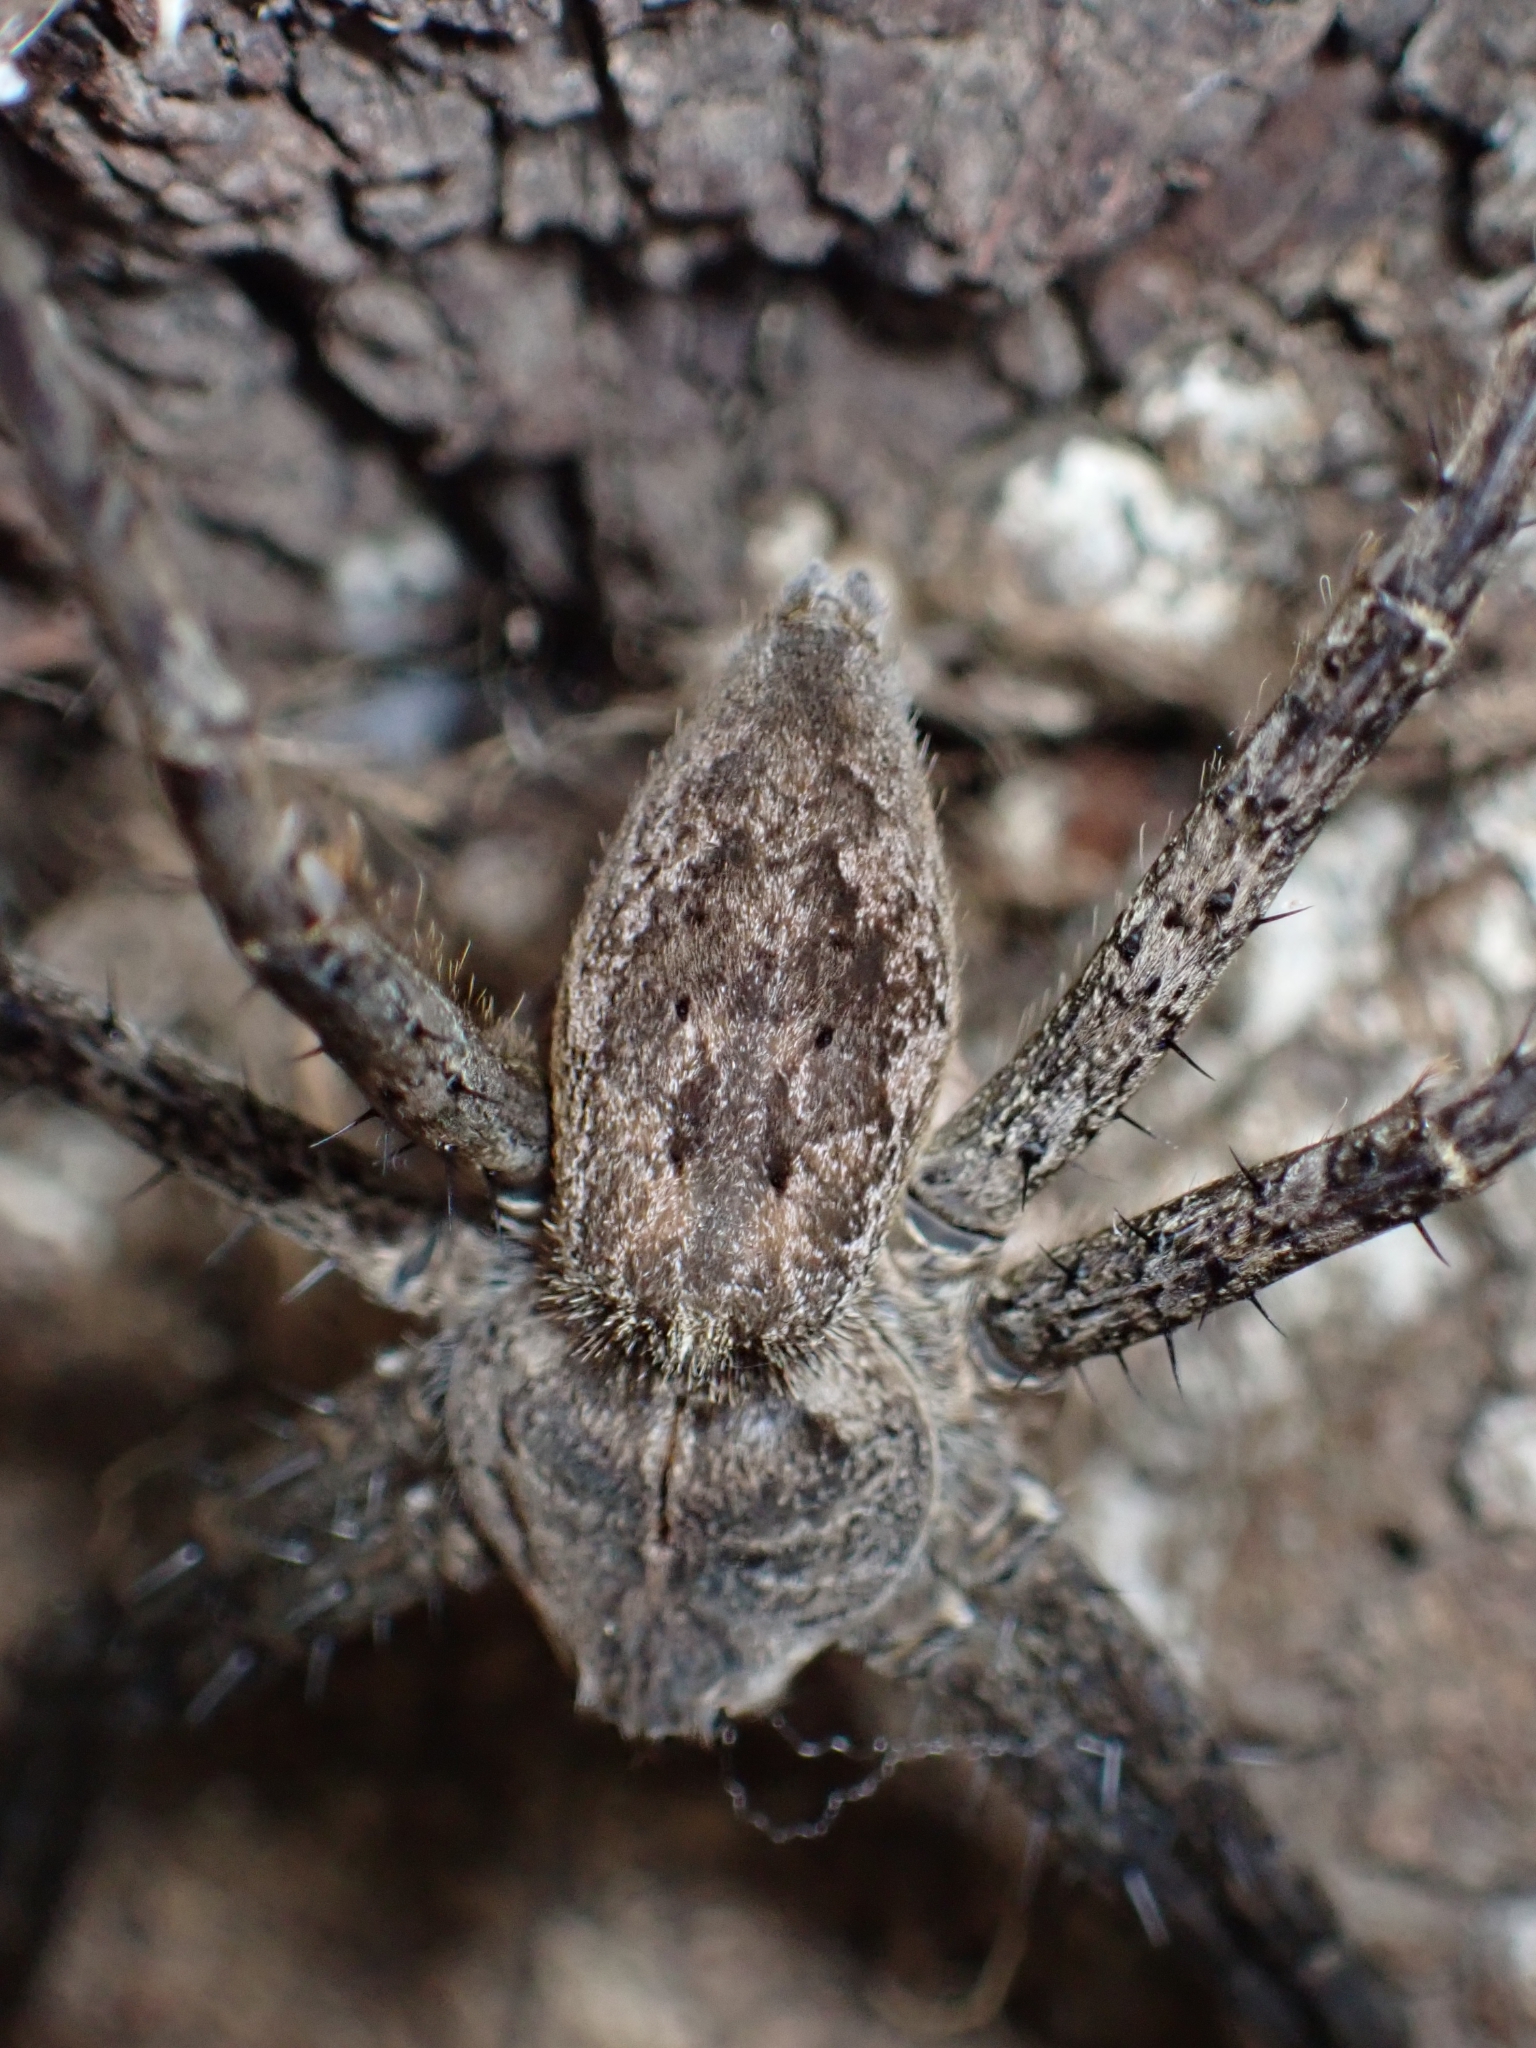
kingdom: Animalia
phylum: Arthropoda
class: Arachnida
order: Araneae
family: Pisauridae
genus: Megadolomedes
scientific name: Megadolomedes trux
